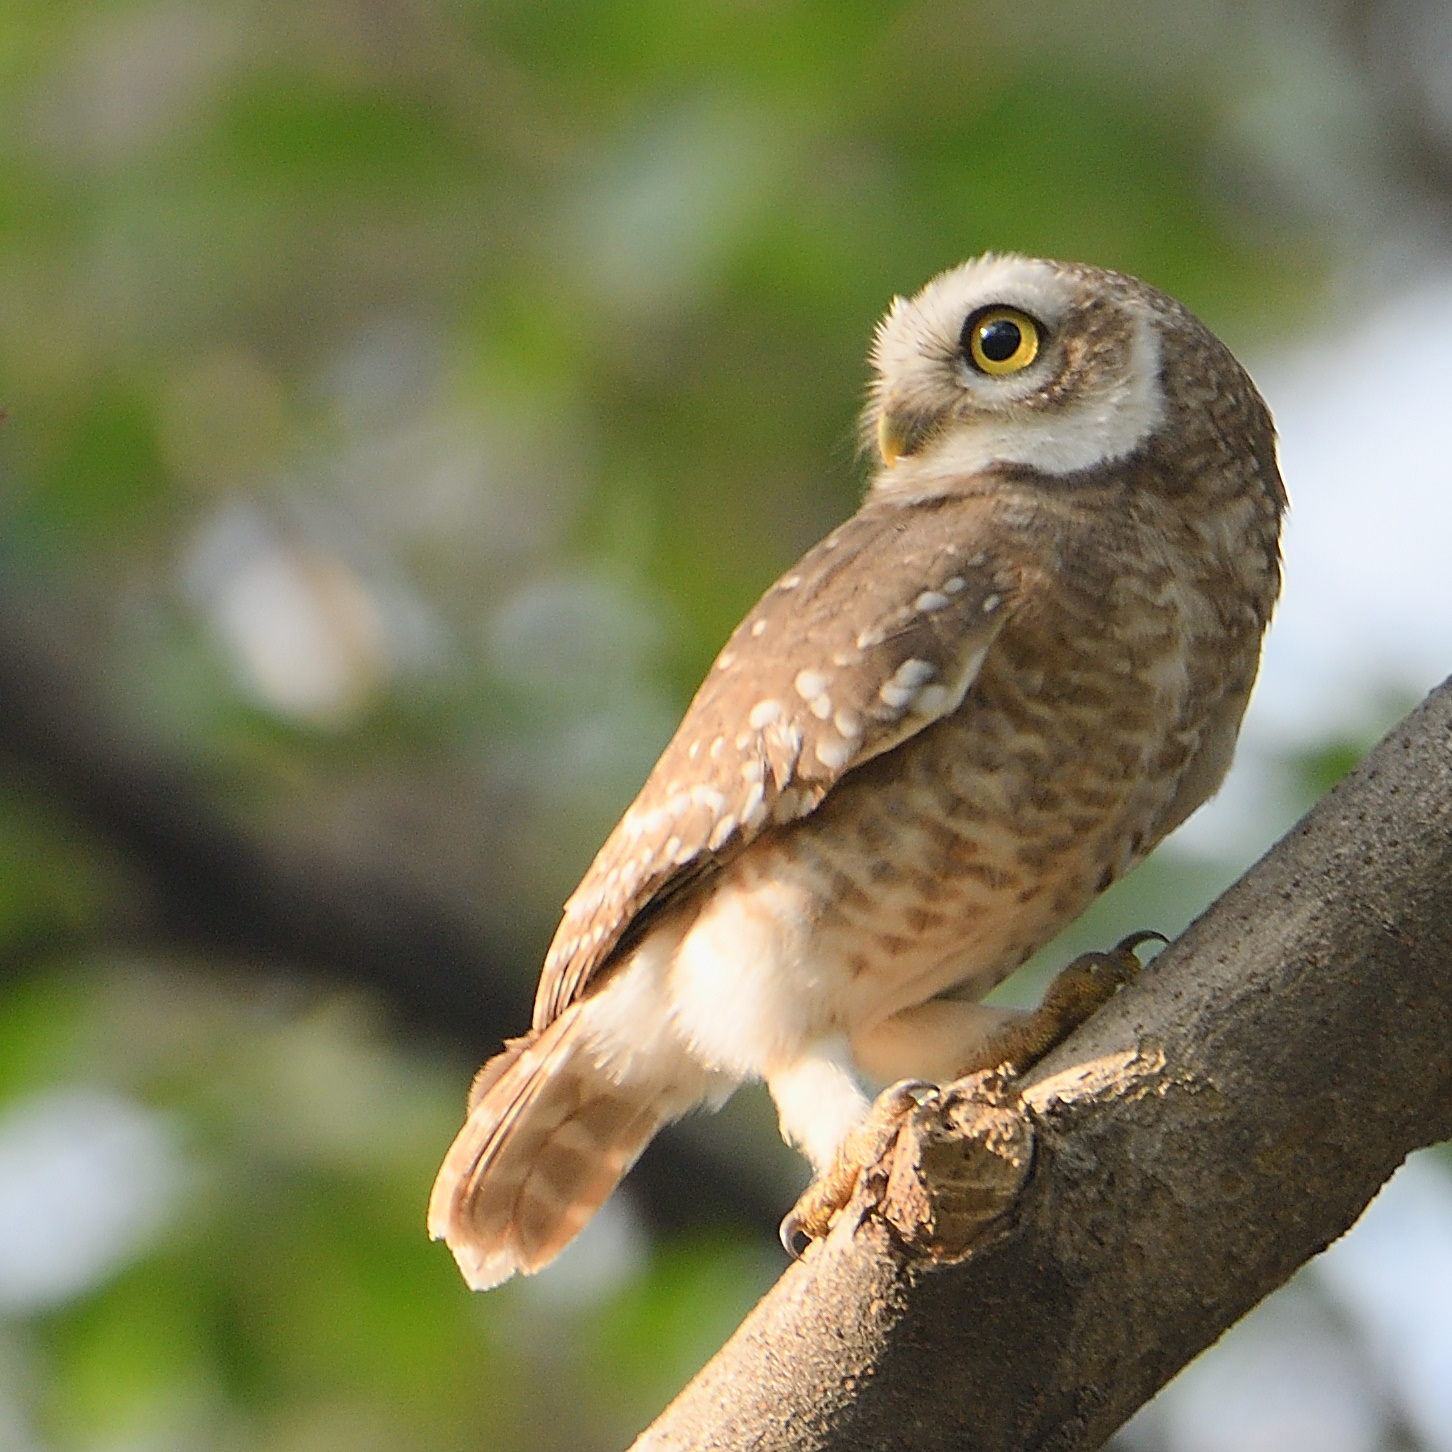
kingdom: Animalia
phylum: Chordata
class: Aves
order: Strigiformes
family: Strigidae
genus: Athene
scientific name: Athene brama
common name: Spotted owlet
